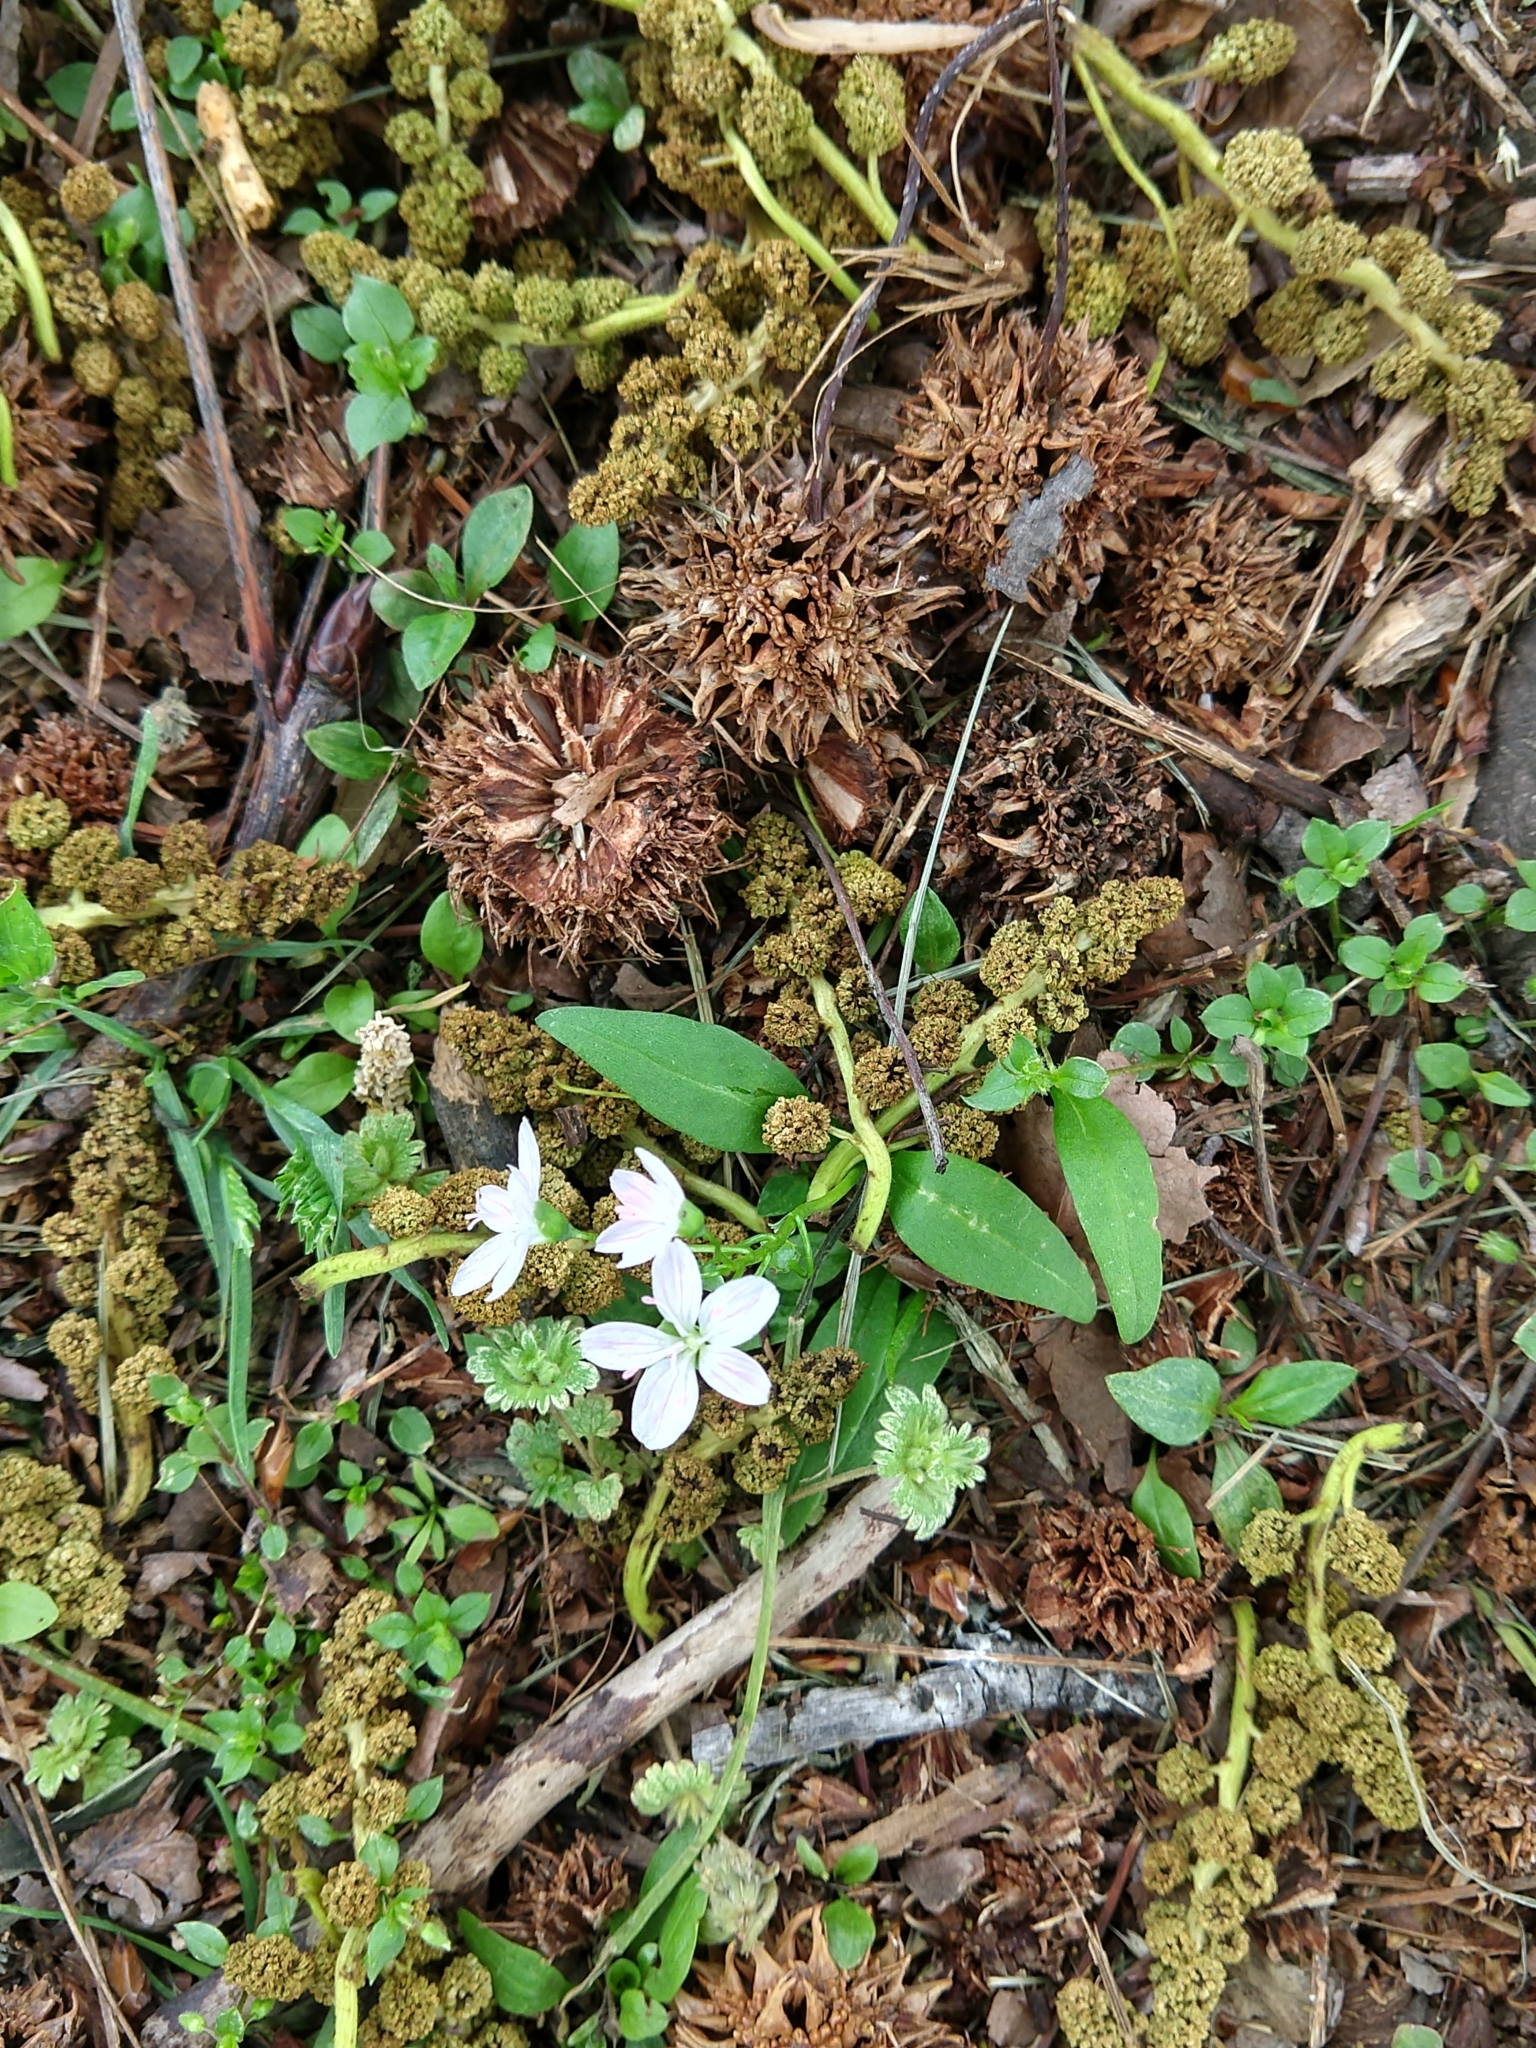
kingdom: Plantae
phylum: Tracheophyta
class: Magnoliopsida
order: Caryophyllales
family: Montiaceae
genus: Claytonia
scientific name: Claytonia virginica
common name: Virginia springbeauty
